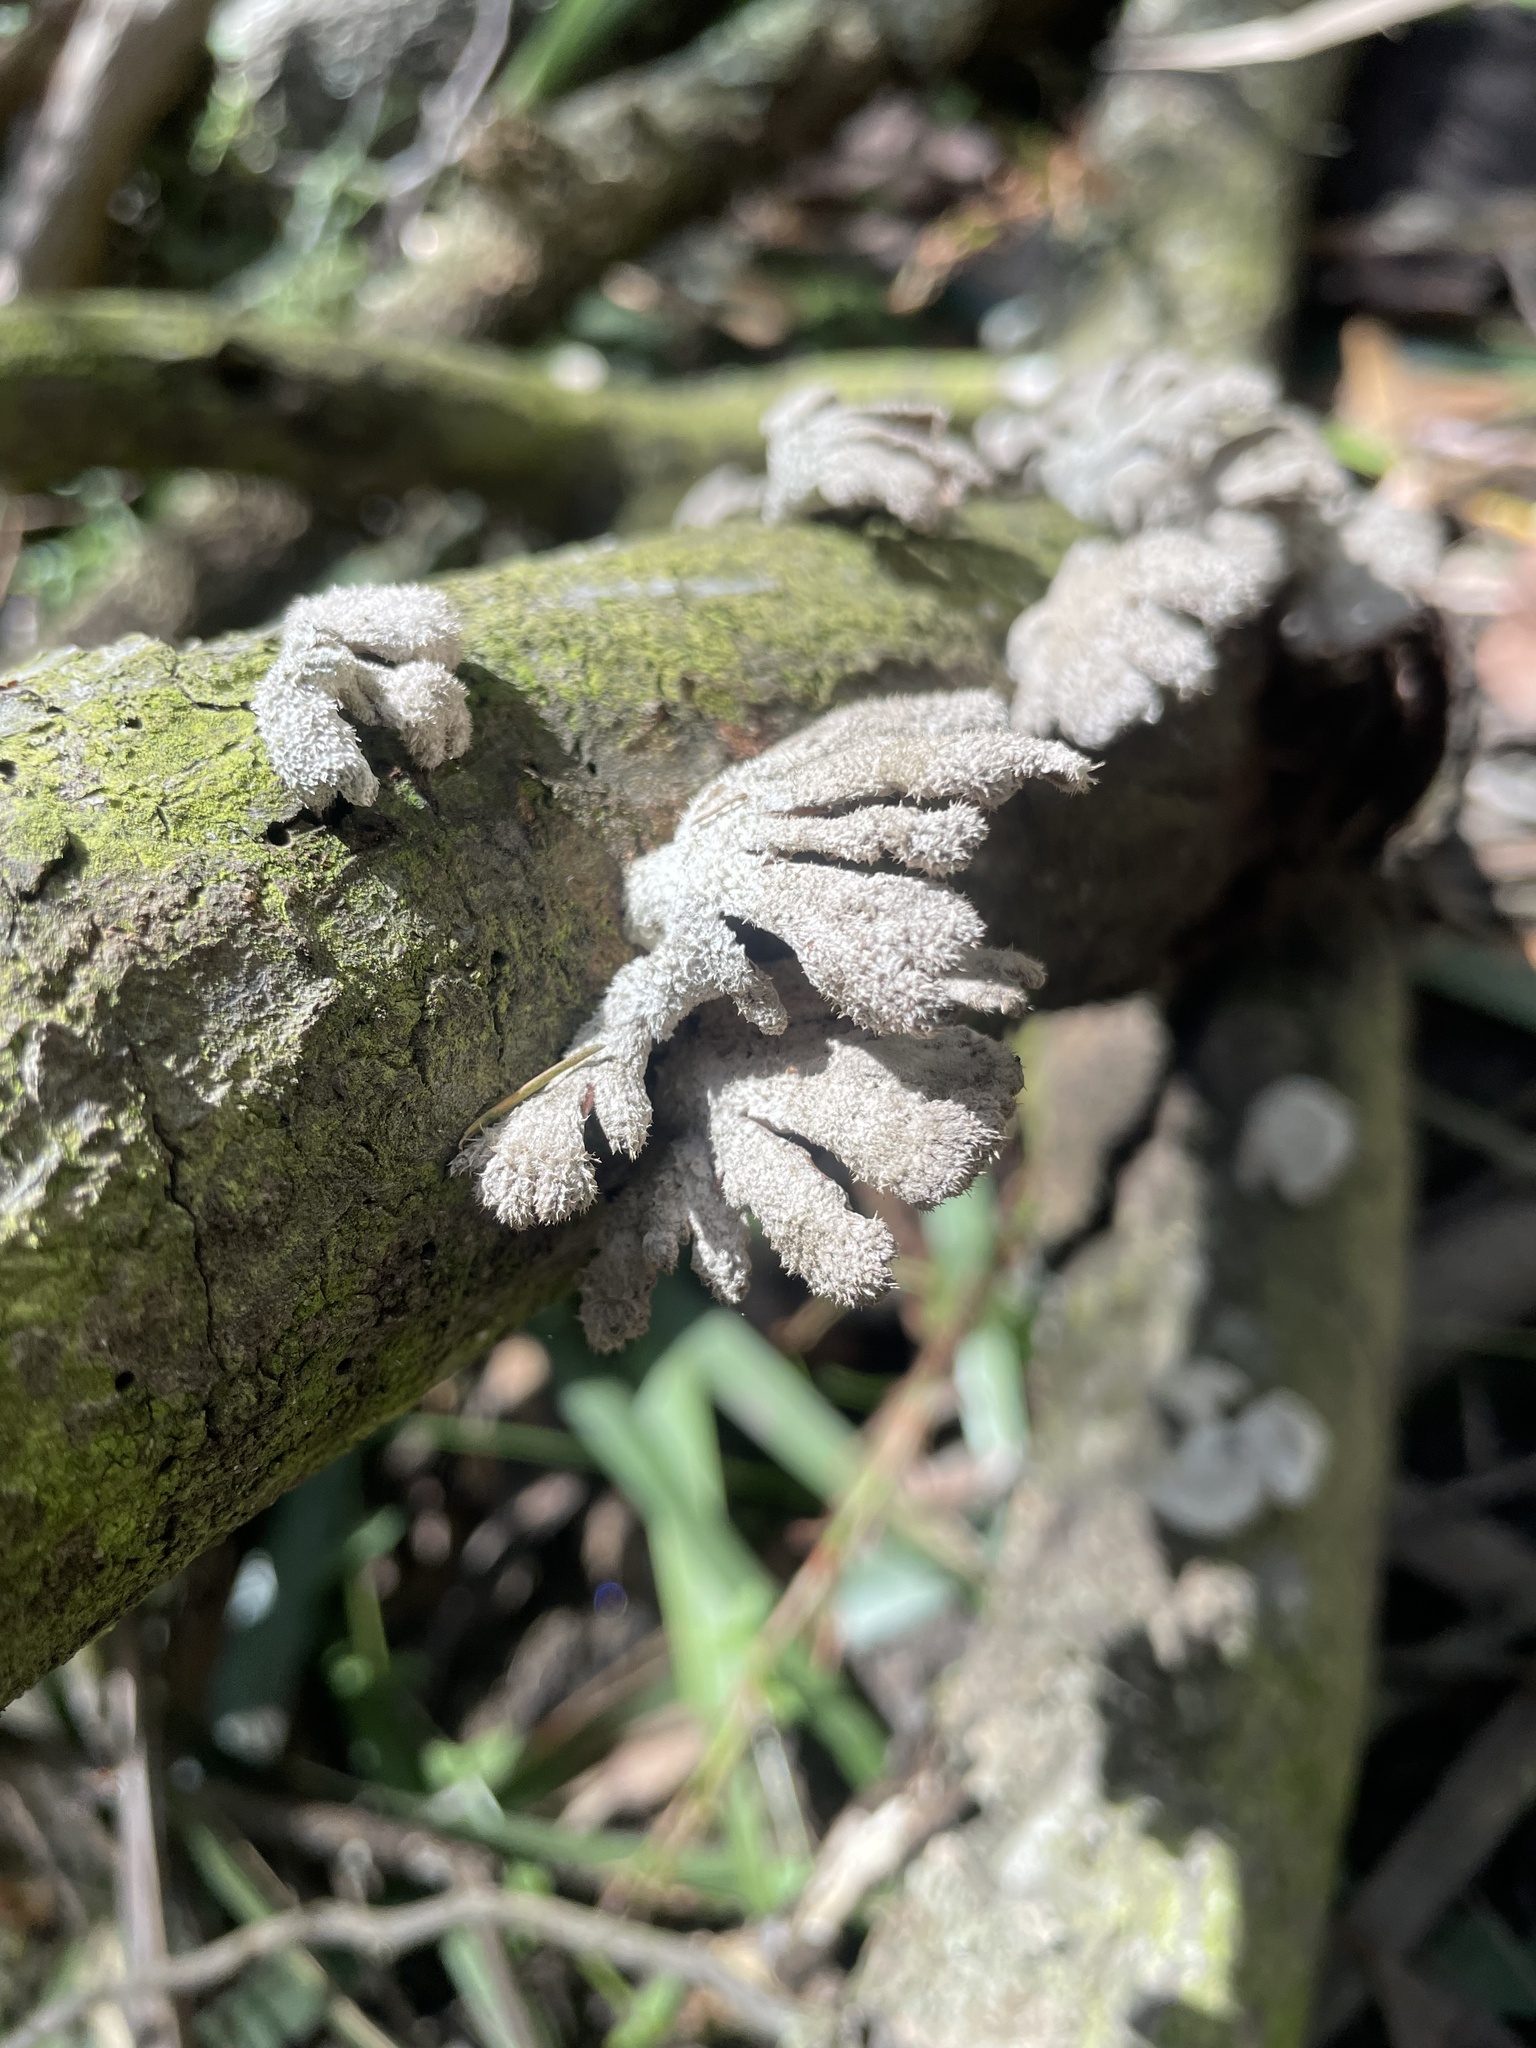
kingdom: Fungi
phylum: Basidiomycota
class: Agaricomycetes
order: Agaricales
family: Schizophyllaceae
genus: Schizophyllum
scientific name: Schizophyllum commune
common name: Common porecrust
